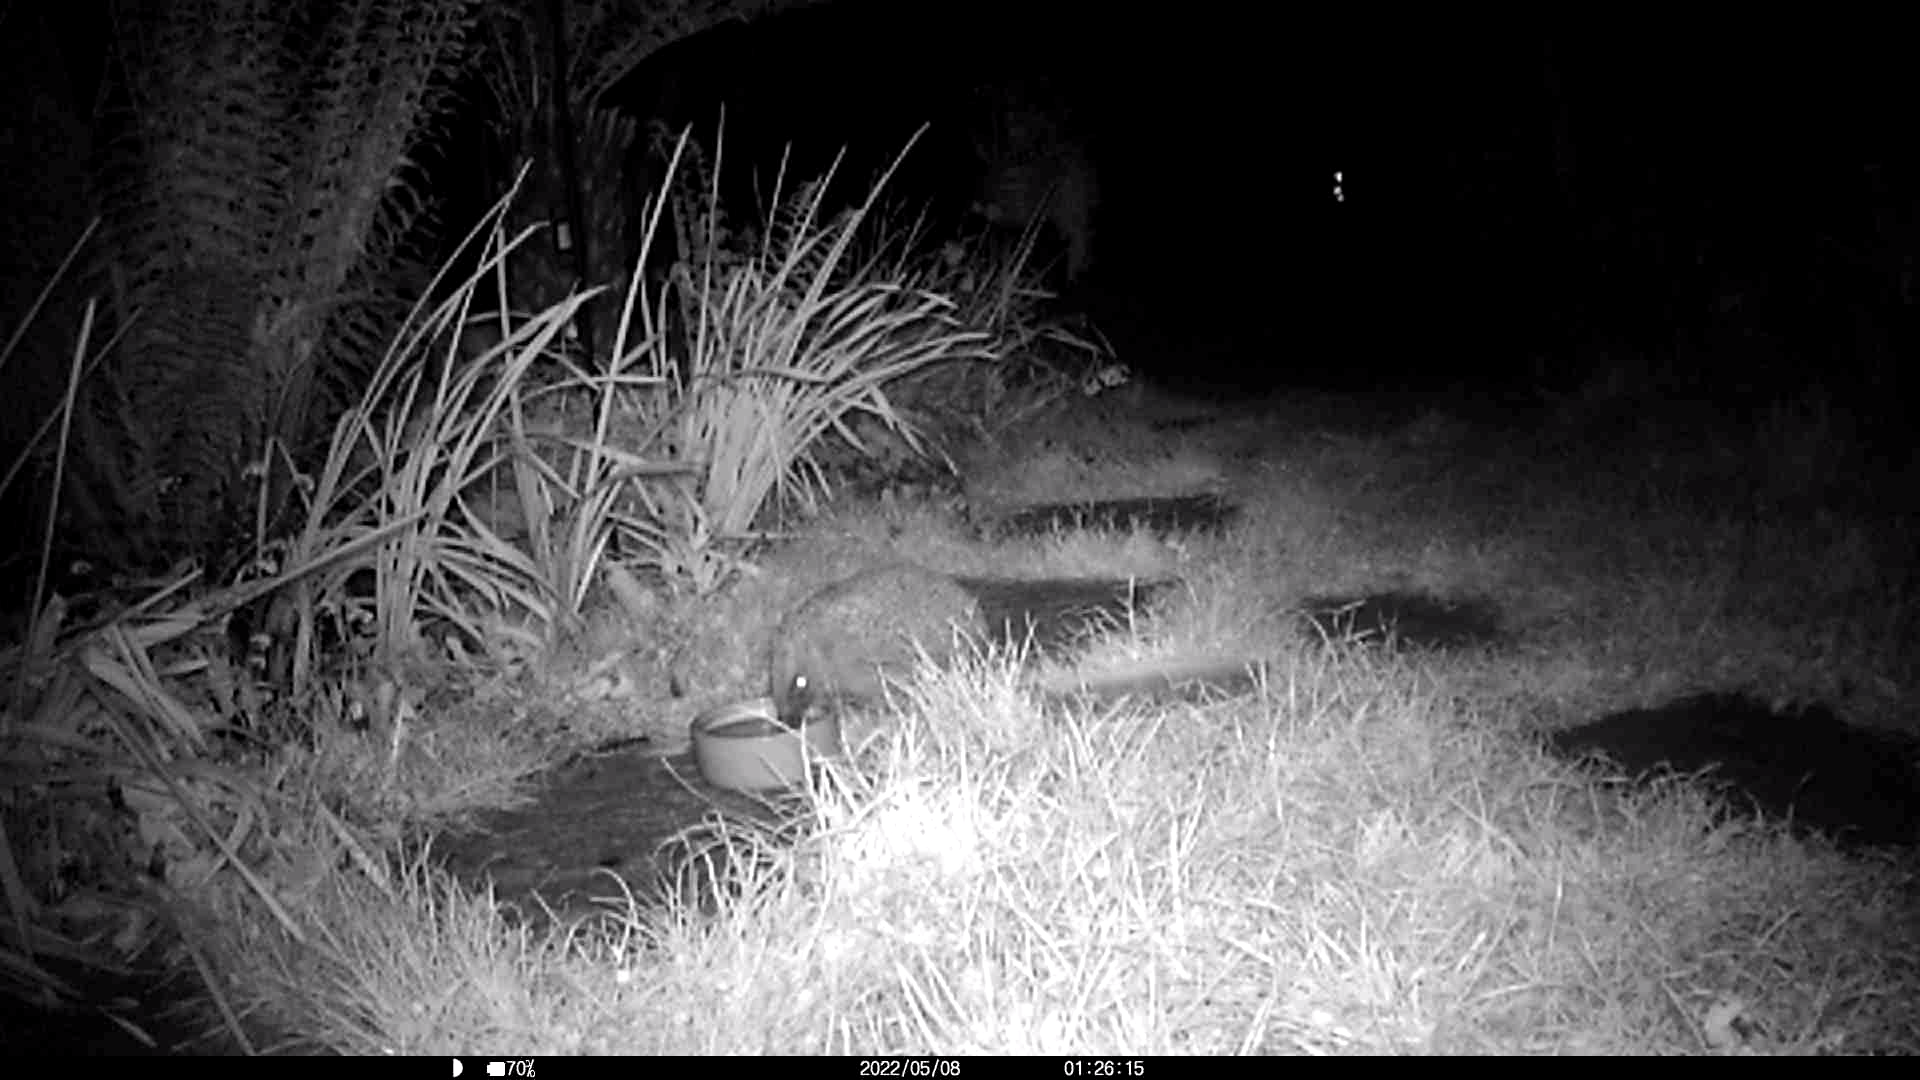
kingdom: Animalia
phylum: Chordata
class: Mammalia
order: Erinaceomorpha
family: Erinaceidae
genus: Erinaceus
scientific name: Erinaceus europaeus
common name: West european hedgehog
